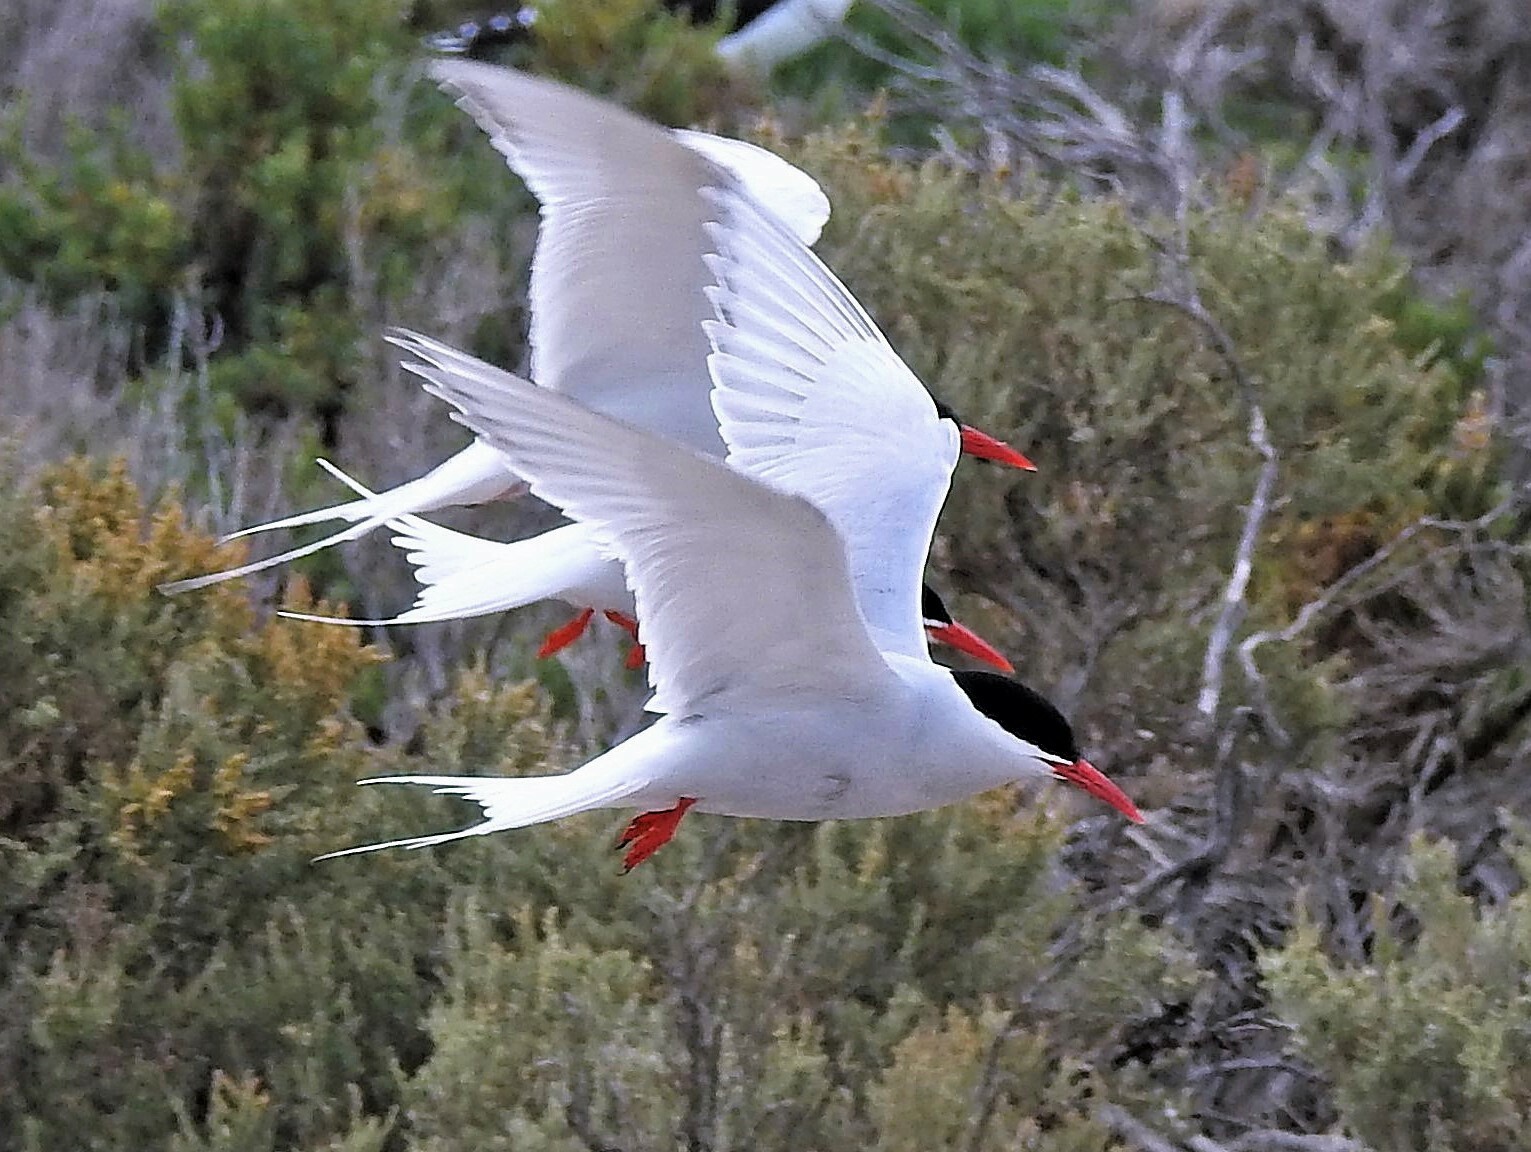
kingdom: Animalia
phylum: Chordata
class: Aves
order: Charadriiformes
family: Laridae
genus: Sterna
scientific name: Sterna hirundinacea
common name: South american tern
